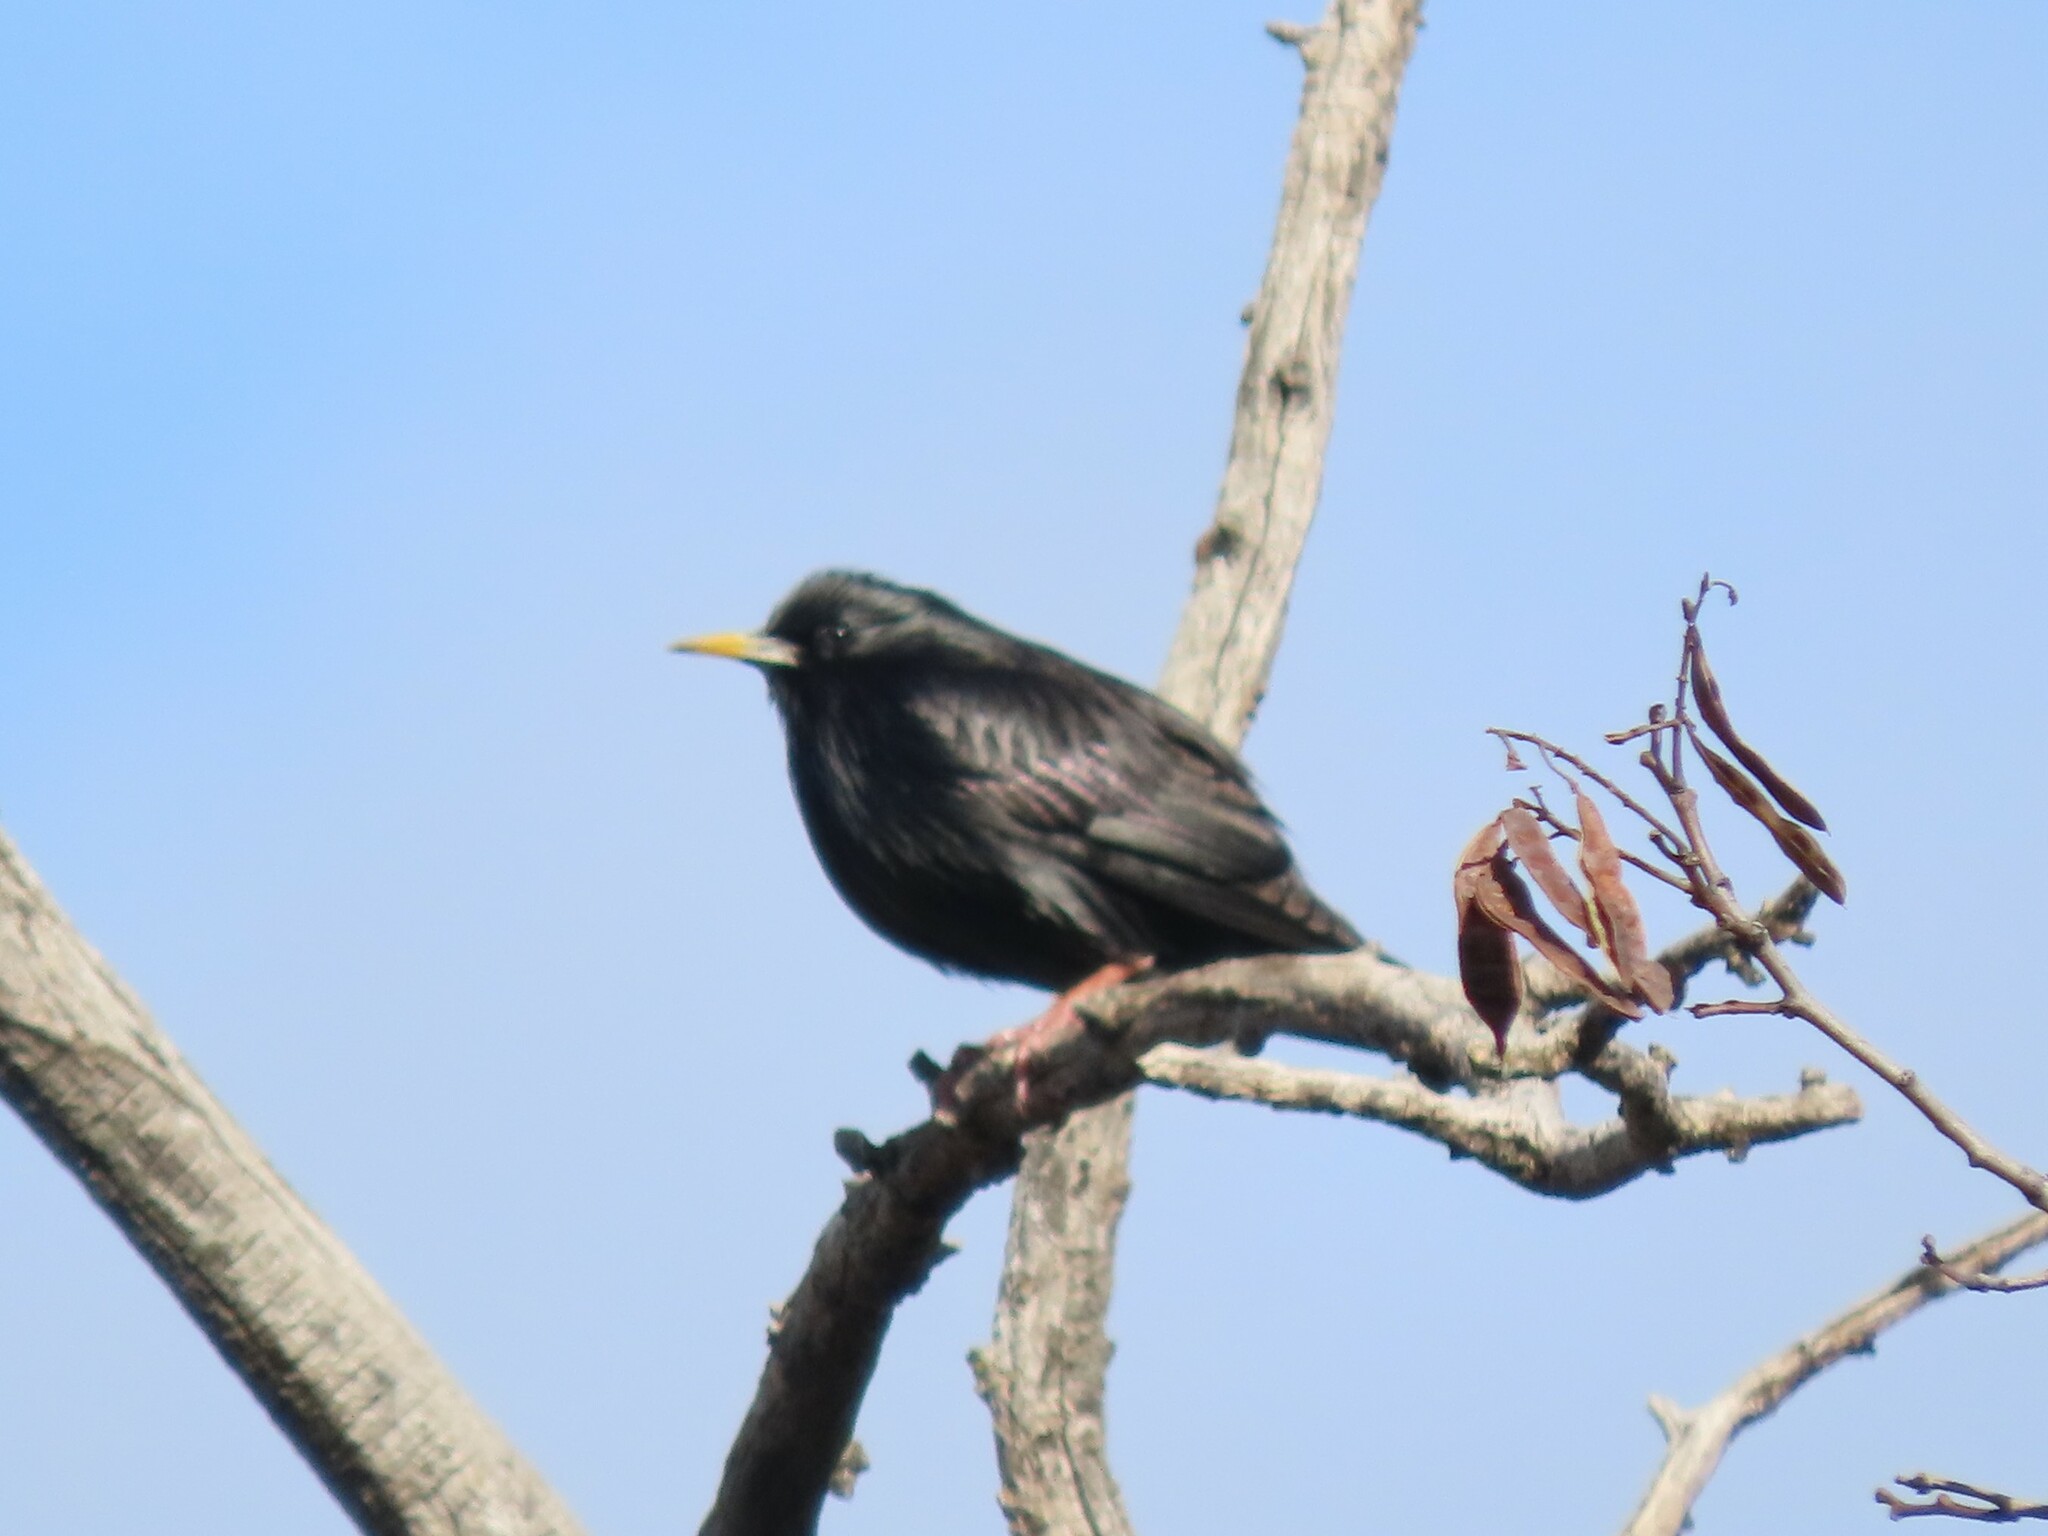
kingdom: Animalia
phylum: Chordata
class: Aves
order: Passeriformes
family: Sturnidae
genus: Sturnus
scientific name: Sturnus unicolor
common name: Spotless starling
